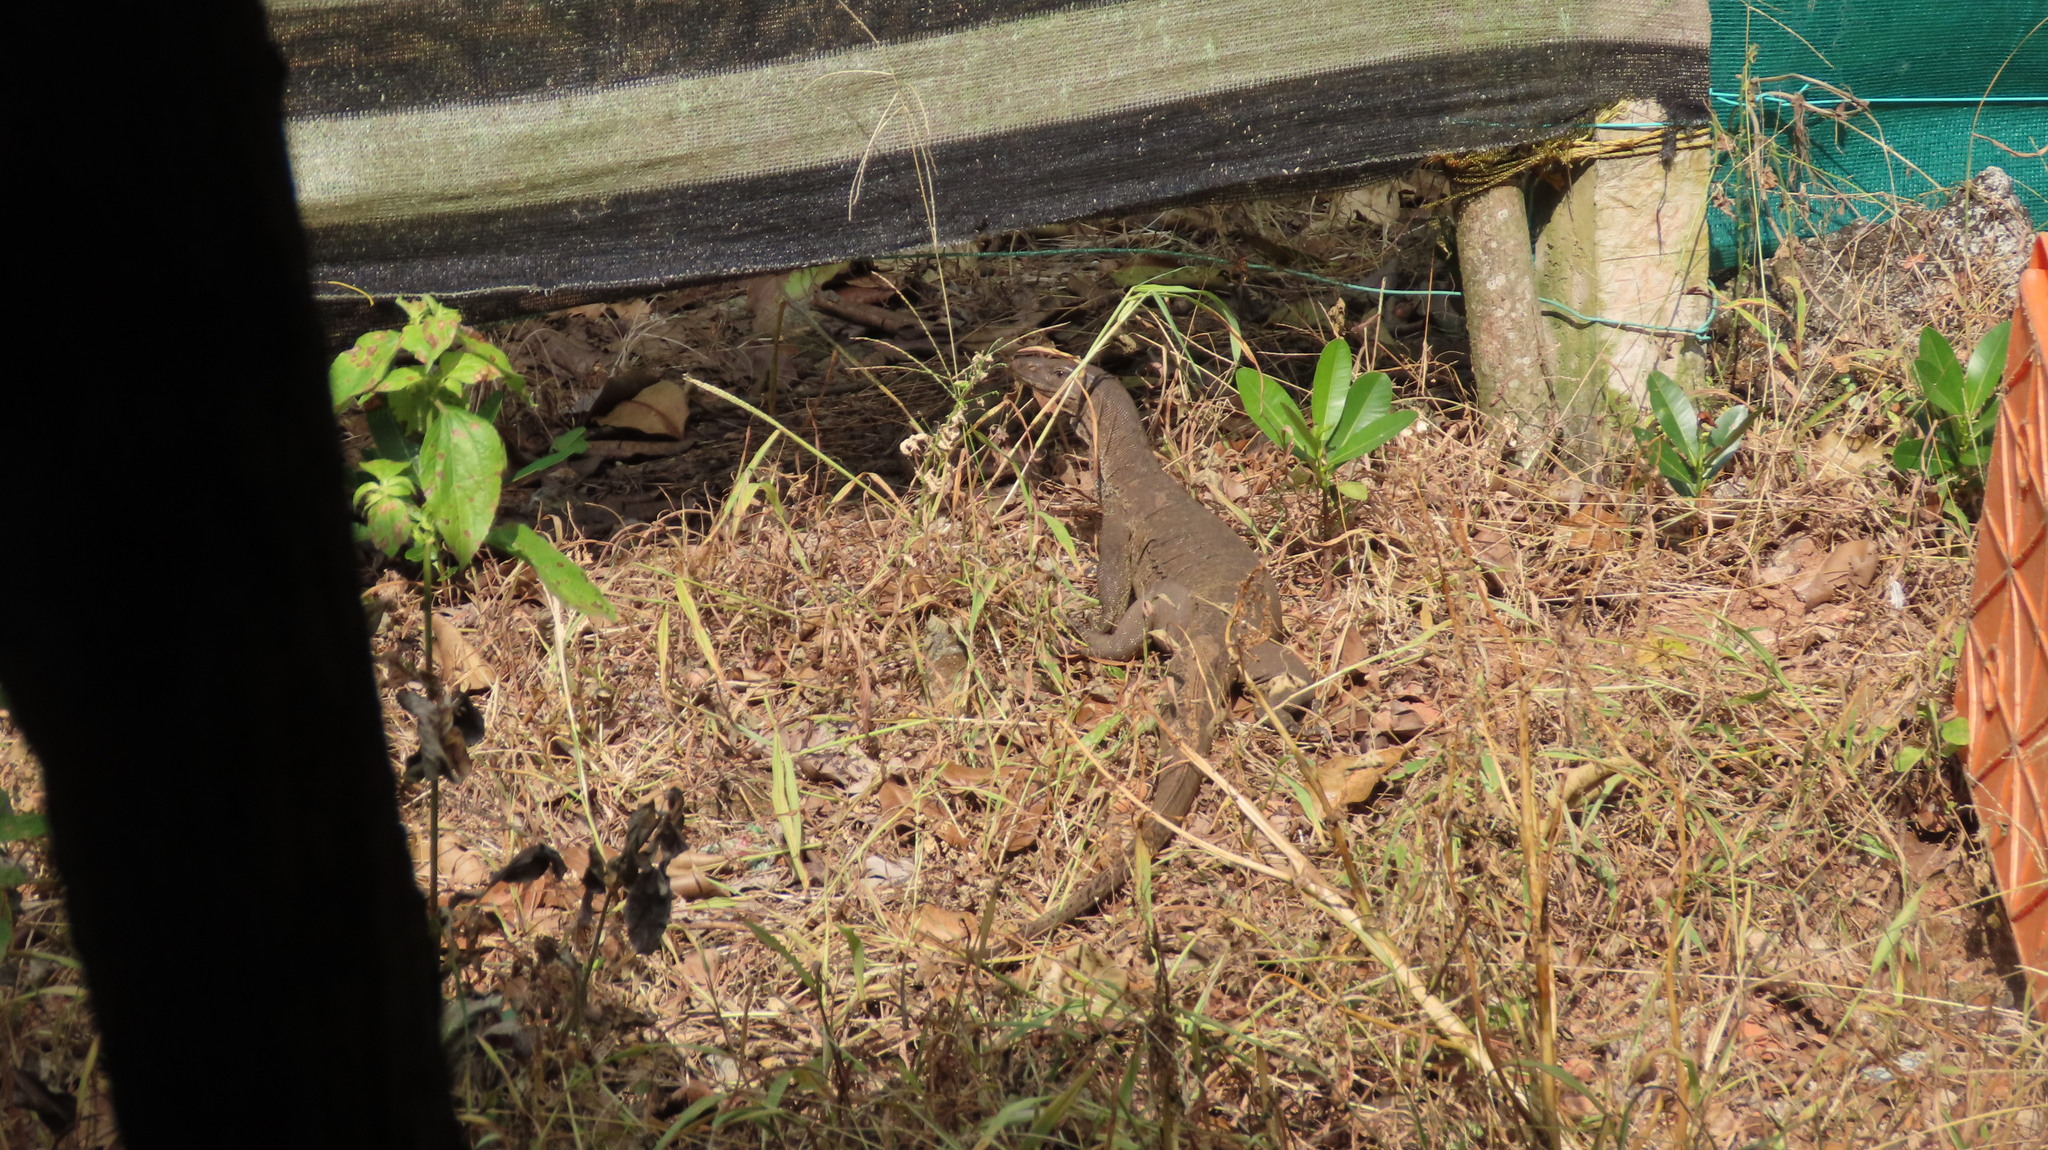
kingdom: Animalia
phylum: Chordata
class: Squamata
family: Varanidae
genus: Varanus
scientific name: Varanus bengalensis
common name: Bengal monitor
